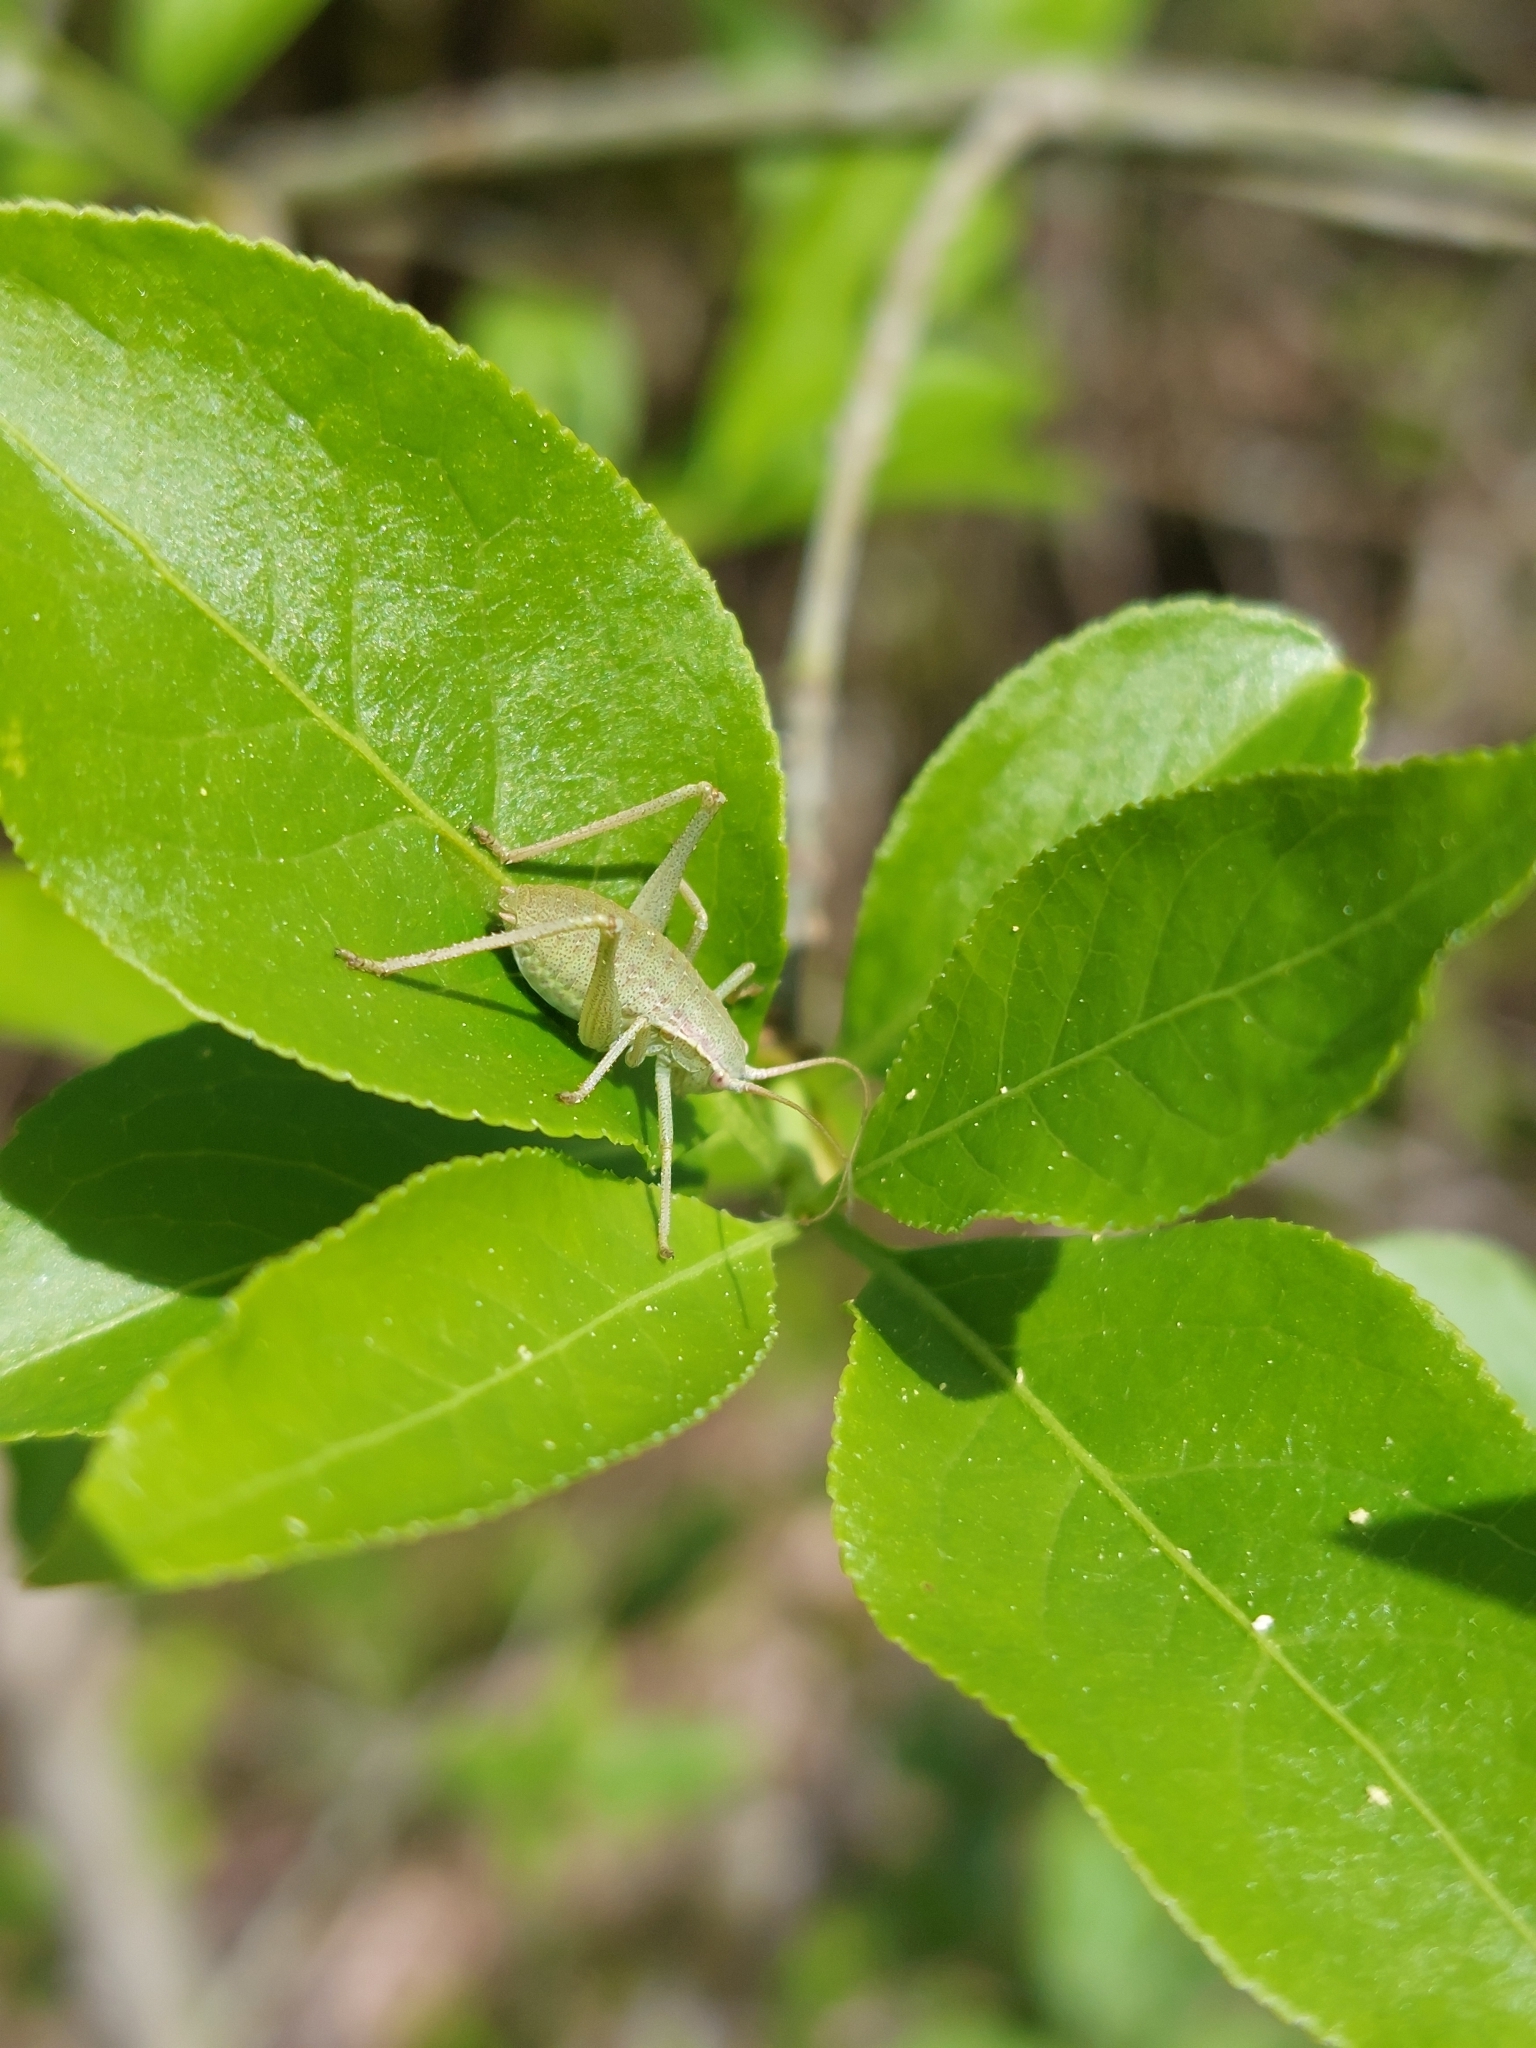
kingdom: Animalia
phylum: Arthropoda
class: Insecta
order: Orthoptera
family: Tettigoniidae
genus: Isophya
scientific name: Isophya pyrenaea
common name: Pyrenean plump bush-cricket
